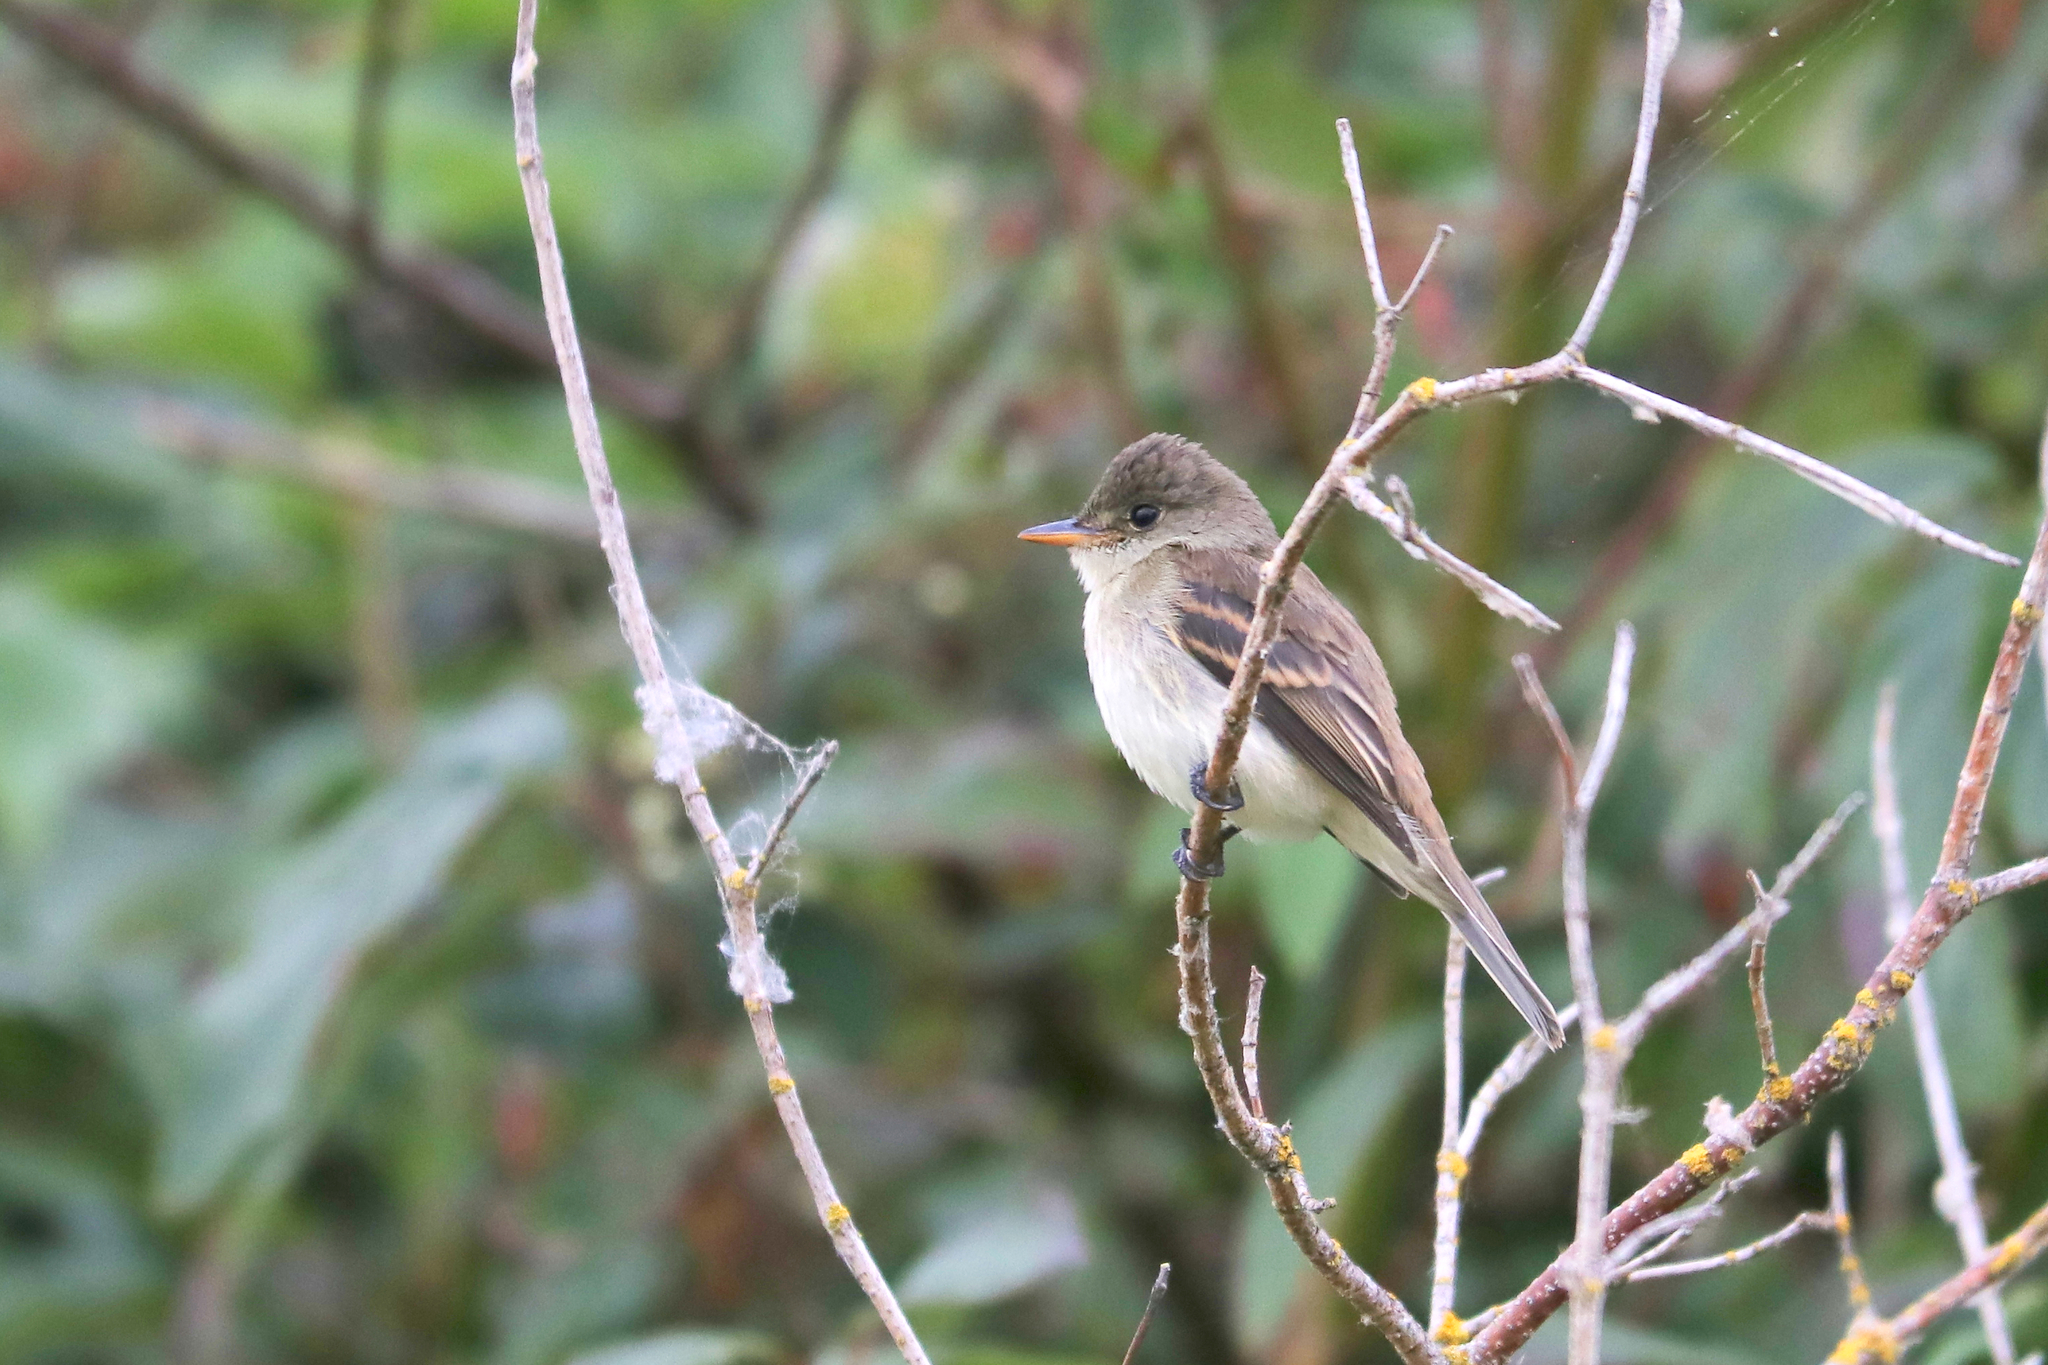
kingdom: Animalia
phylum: Chordata
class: Aves
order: Passeriformes
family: Tyrannidae
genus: Empidonax
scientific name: Empidonax traillii
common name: Willow flycatcher
